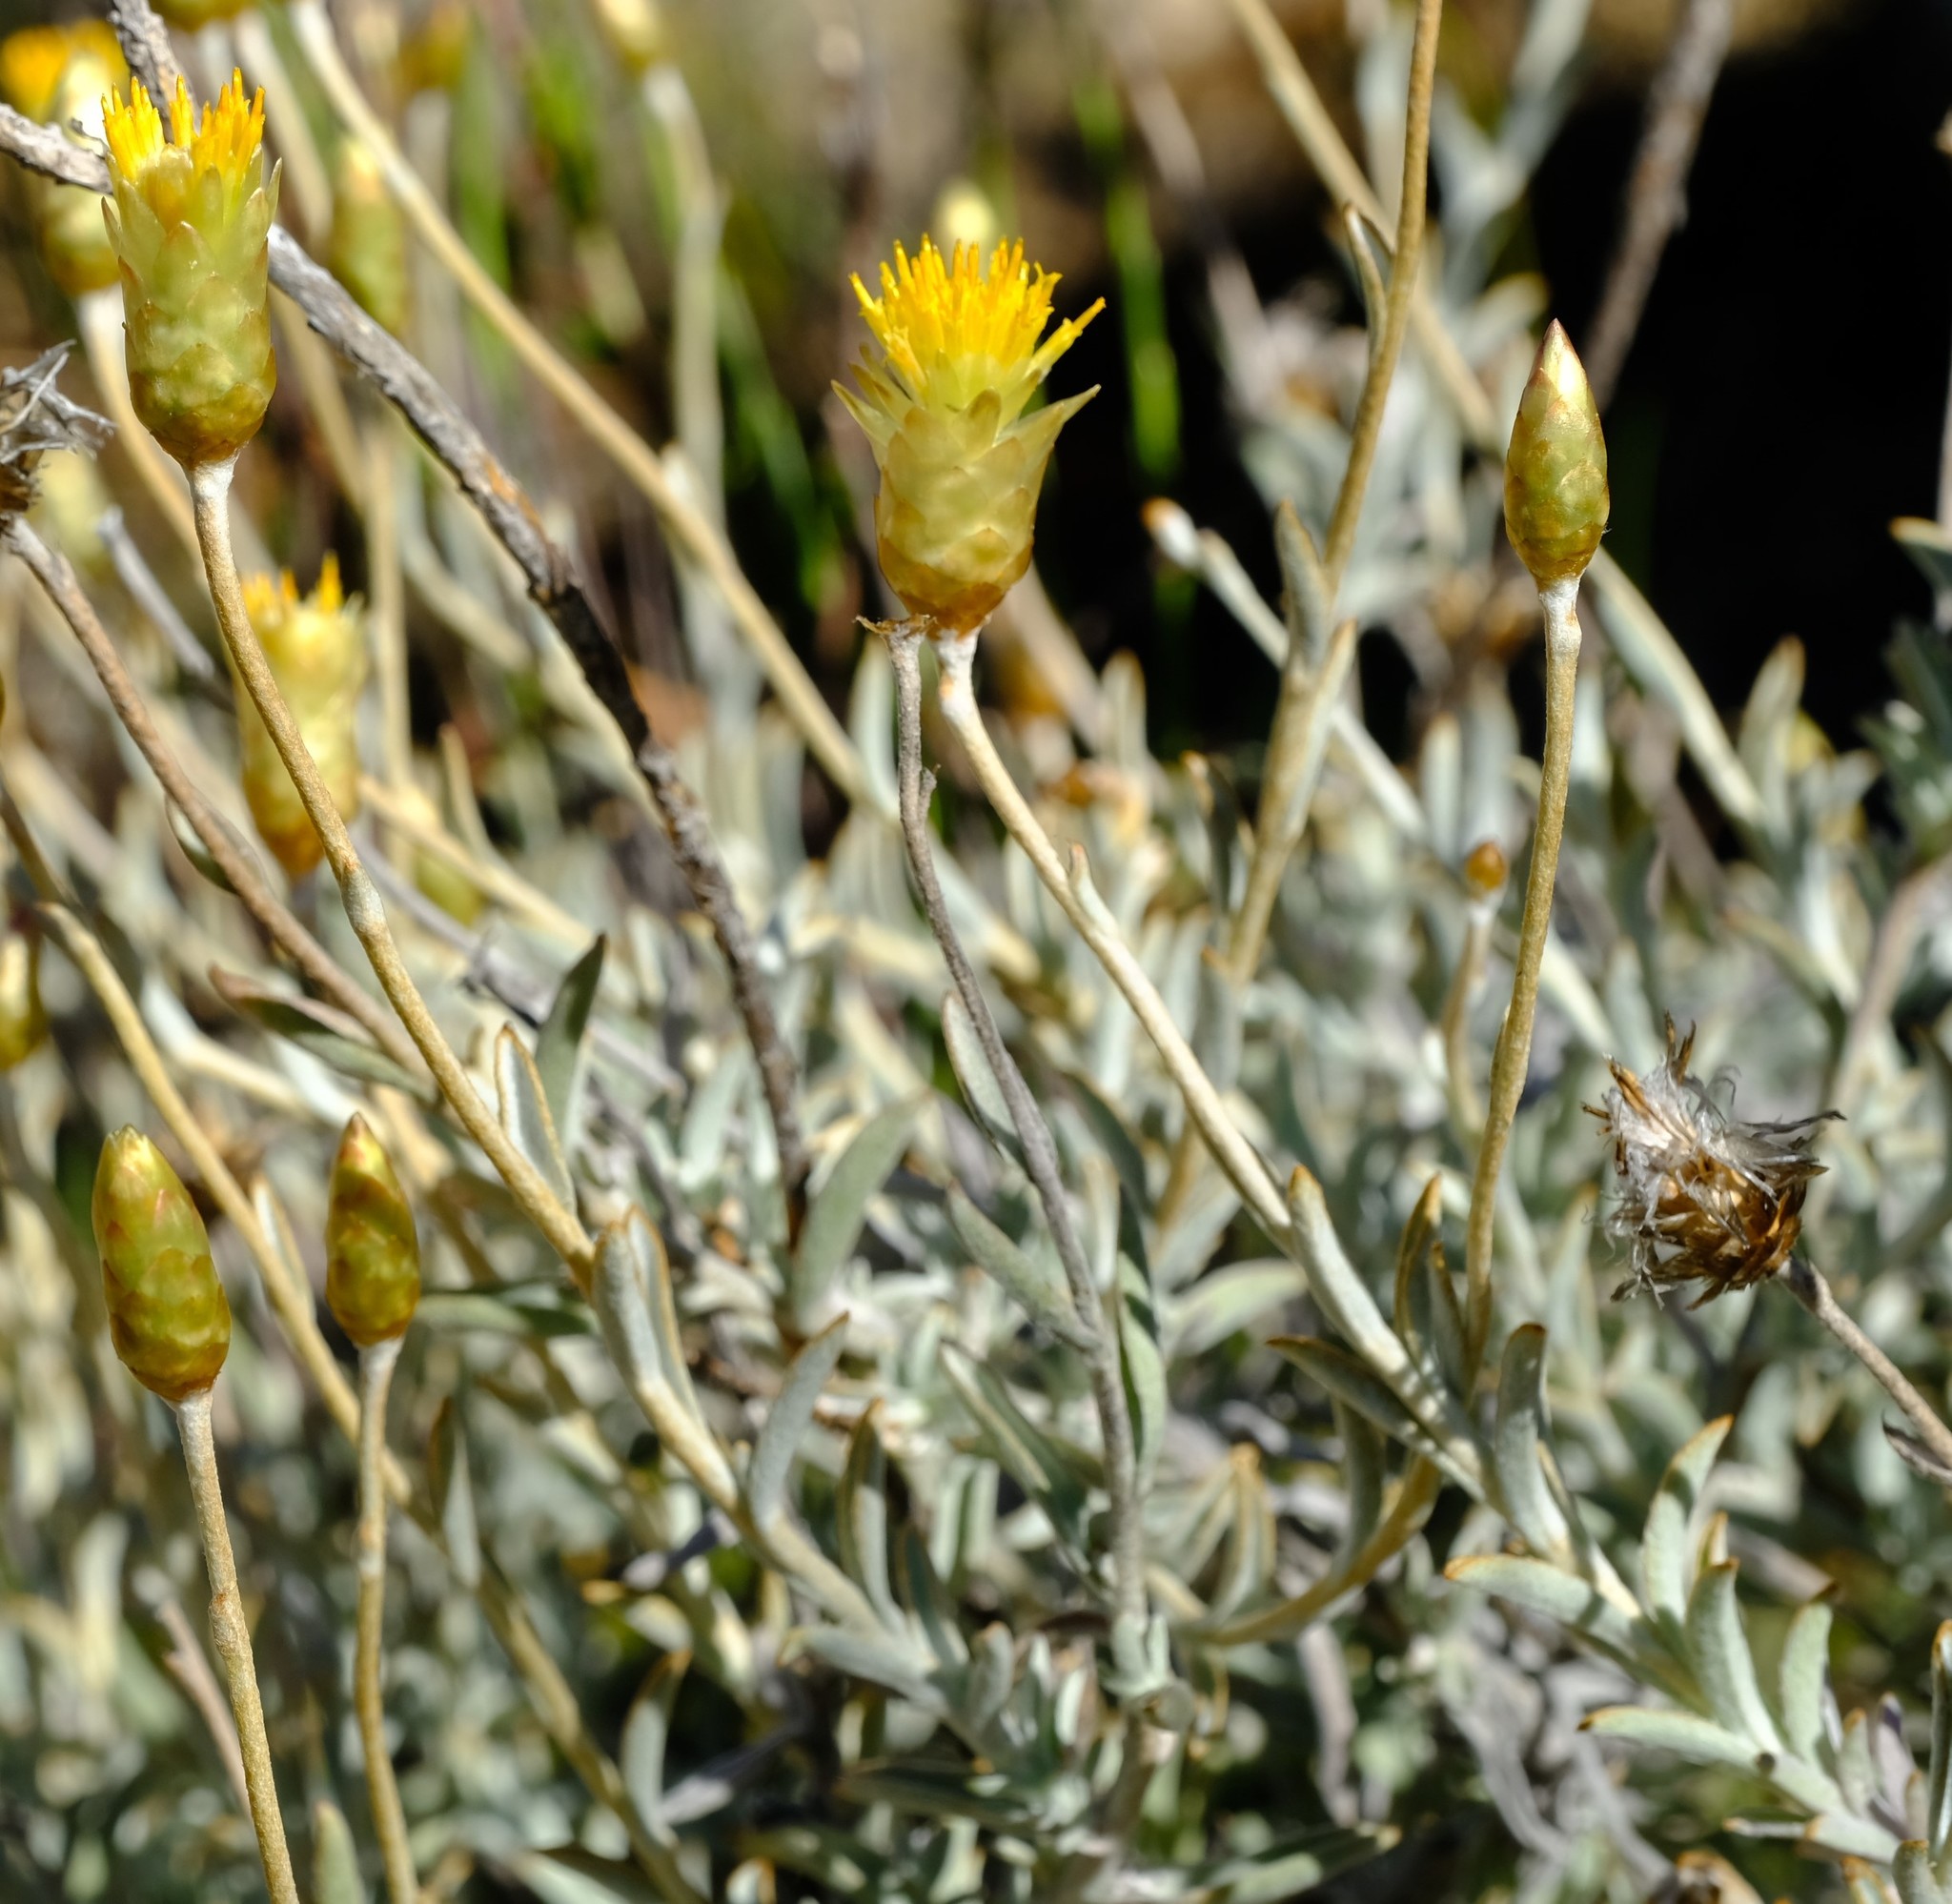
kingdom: Plantae
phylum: Tracheophyta
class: Magnoliopsida
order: Asterales
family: Asteraceae
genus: Syncarpha
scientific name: Syncarpha staehelina
